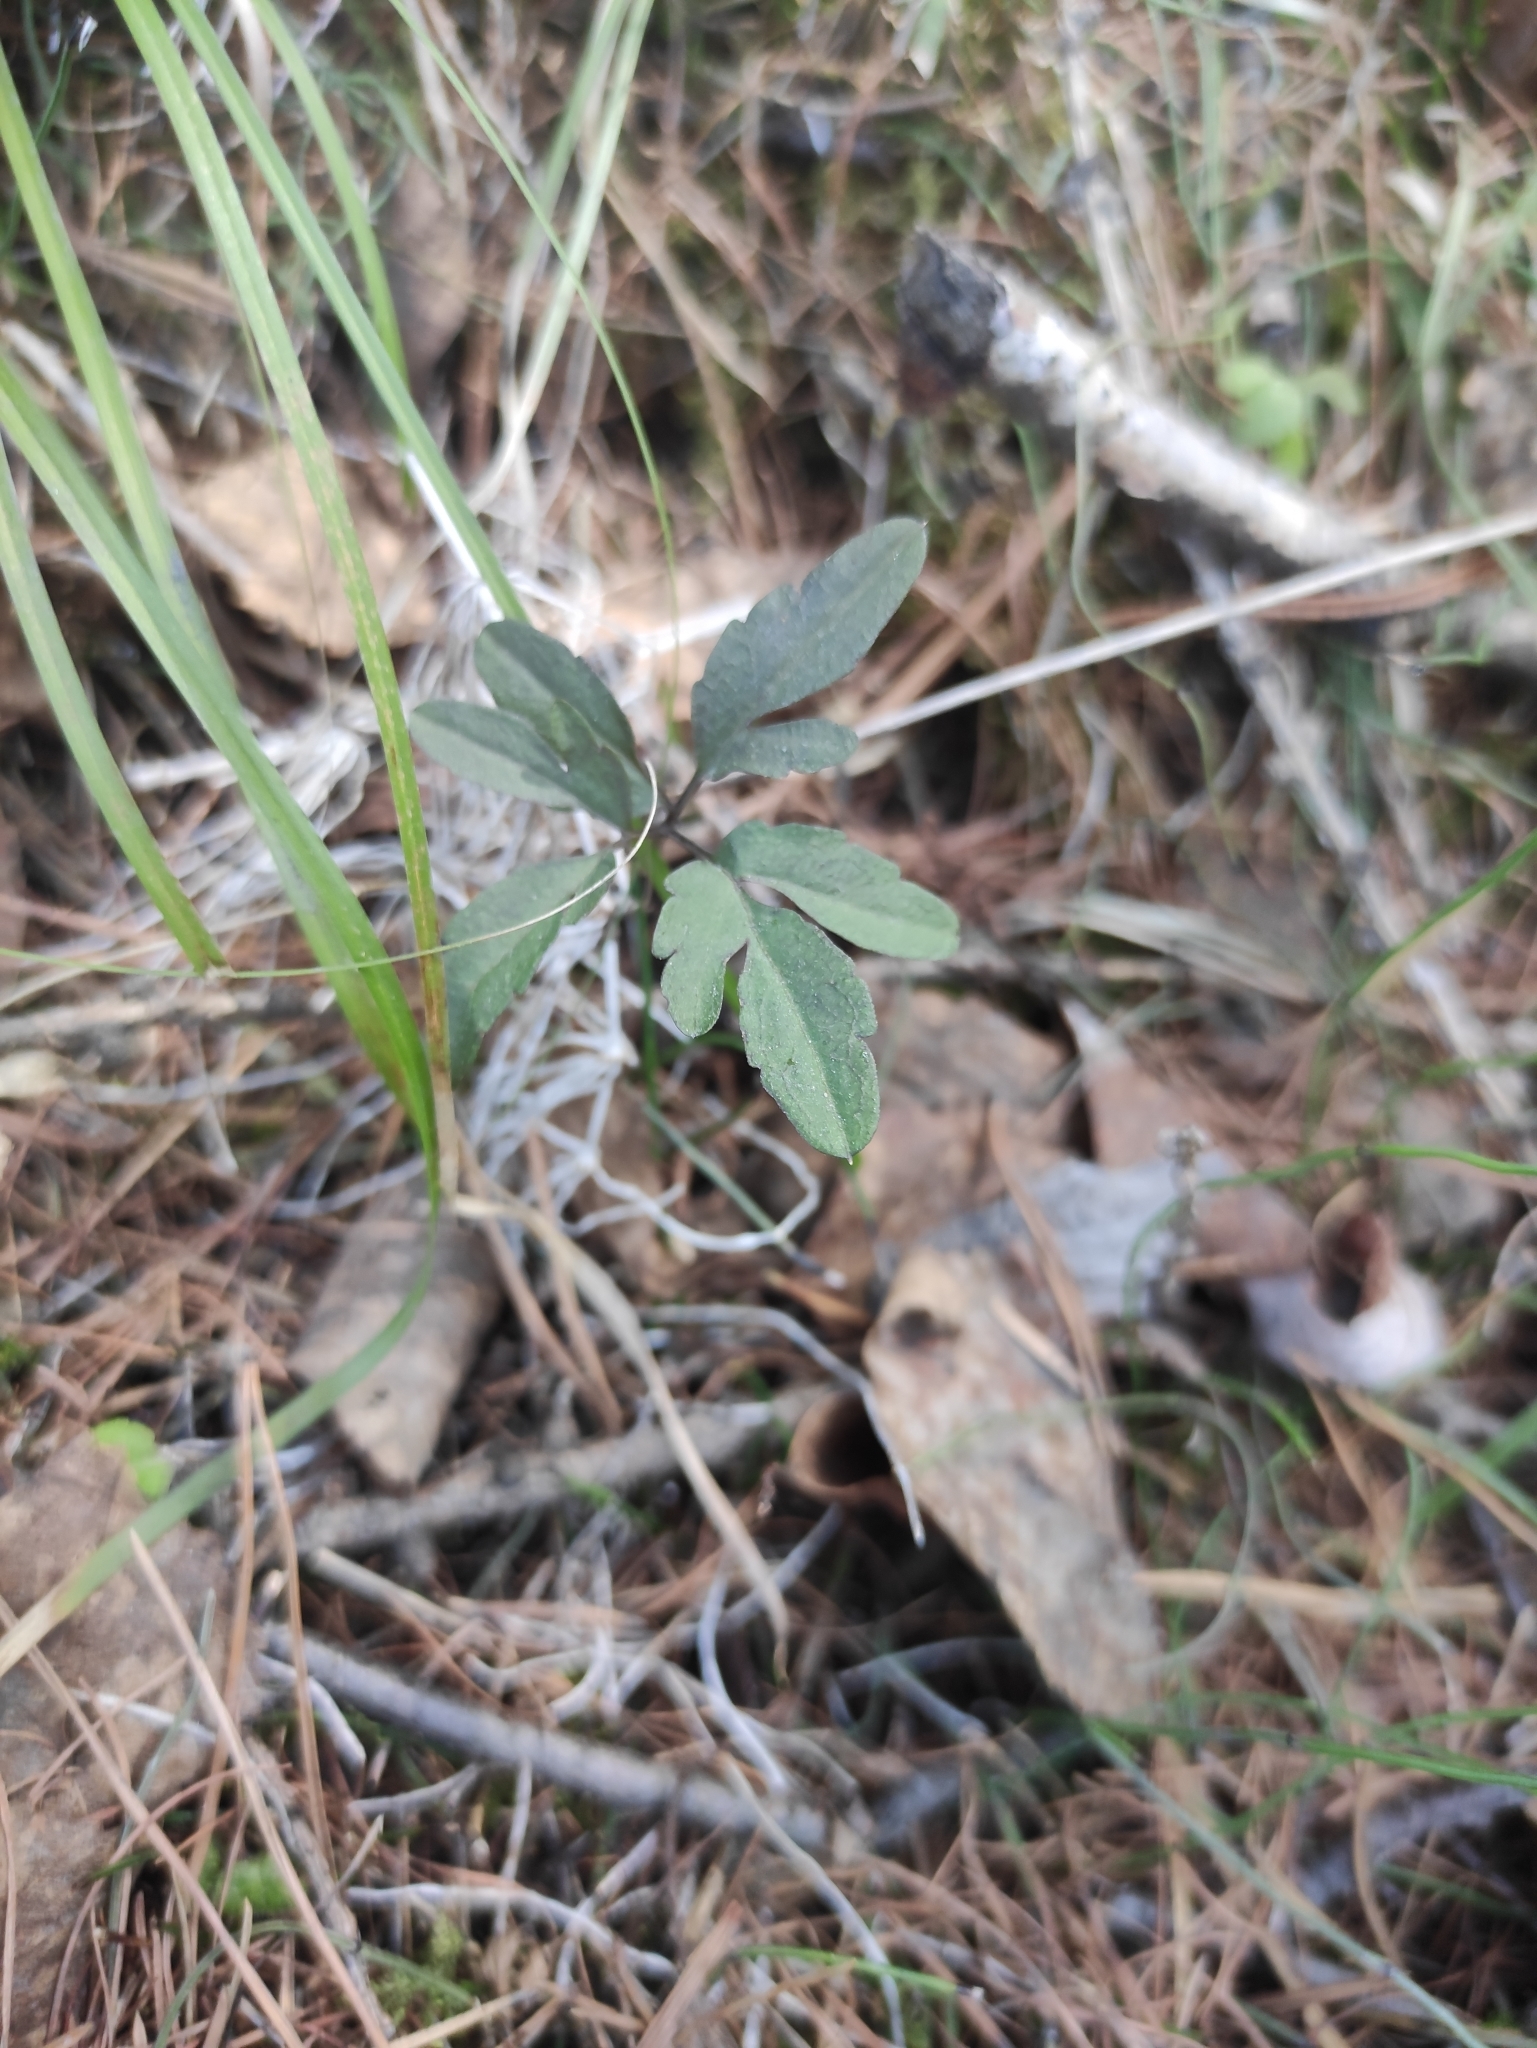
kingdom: Plantae
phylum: Tracheophyta
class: Magnoliopsida
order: Brassicales
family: Brassicaceae
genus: Cardamine
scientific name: Cardamine trifida
